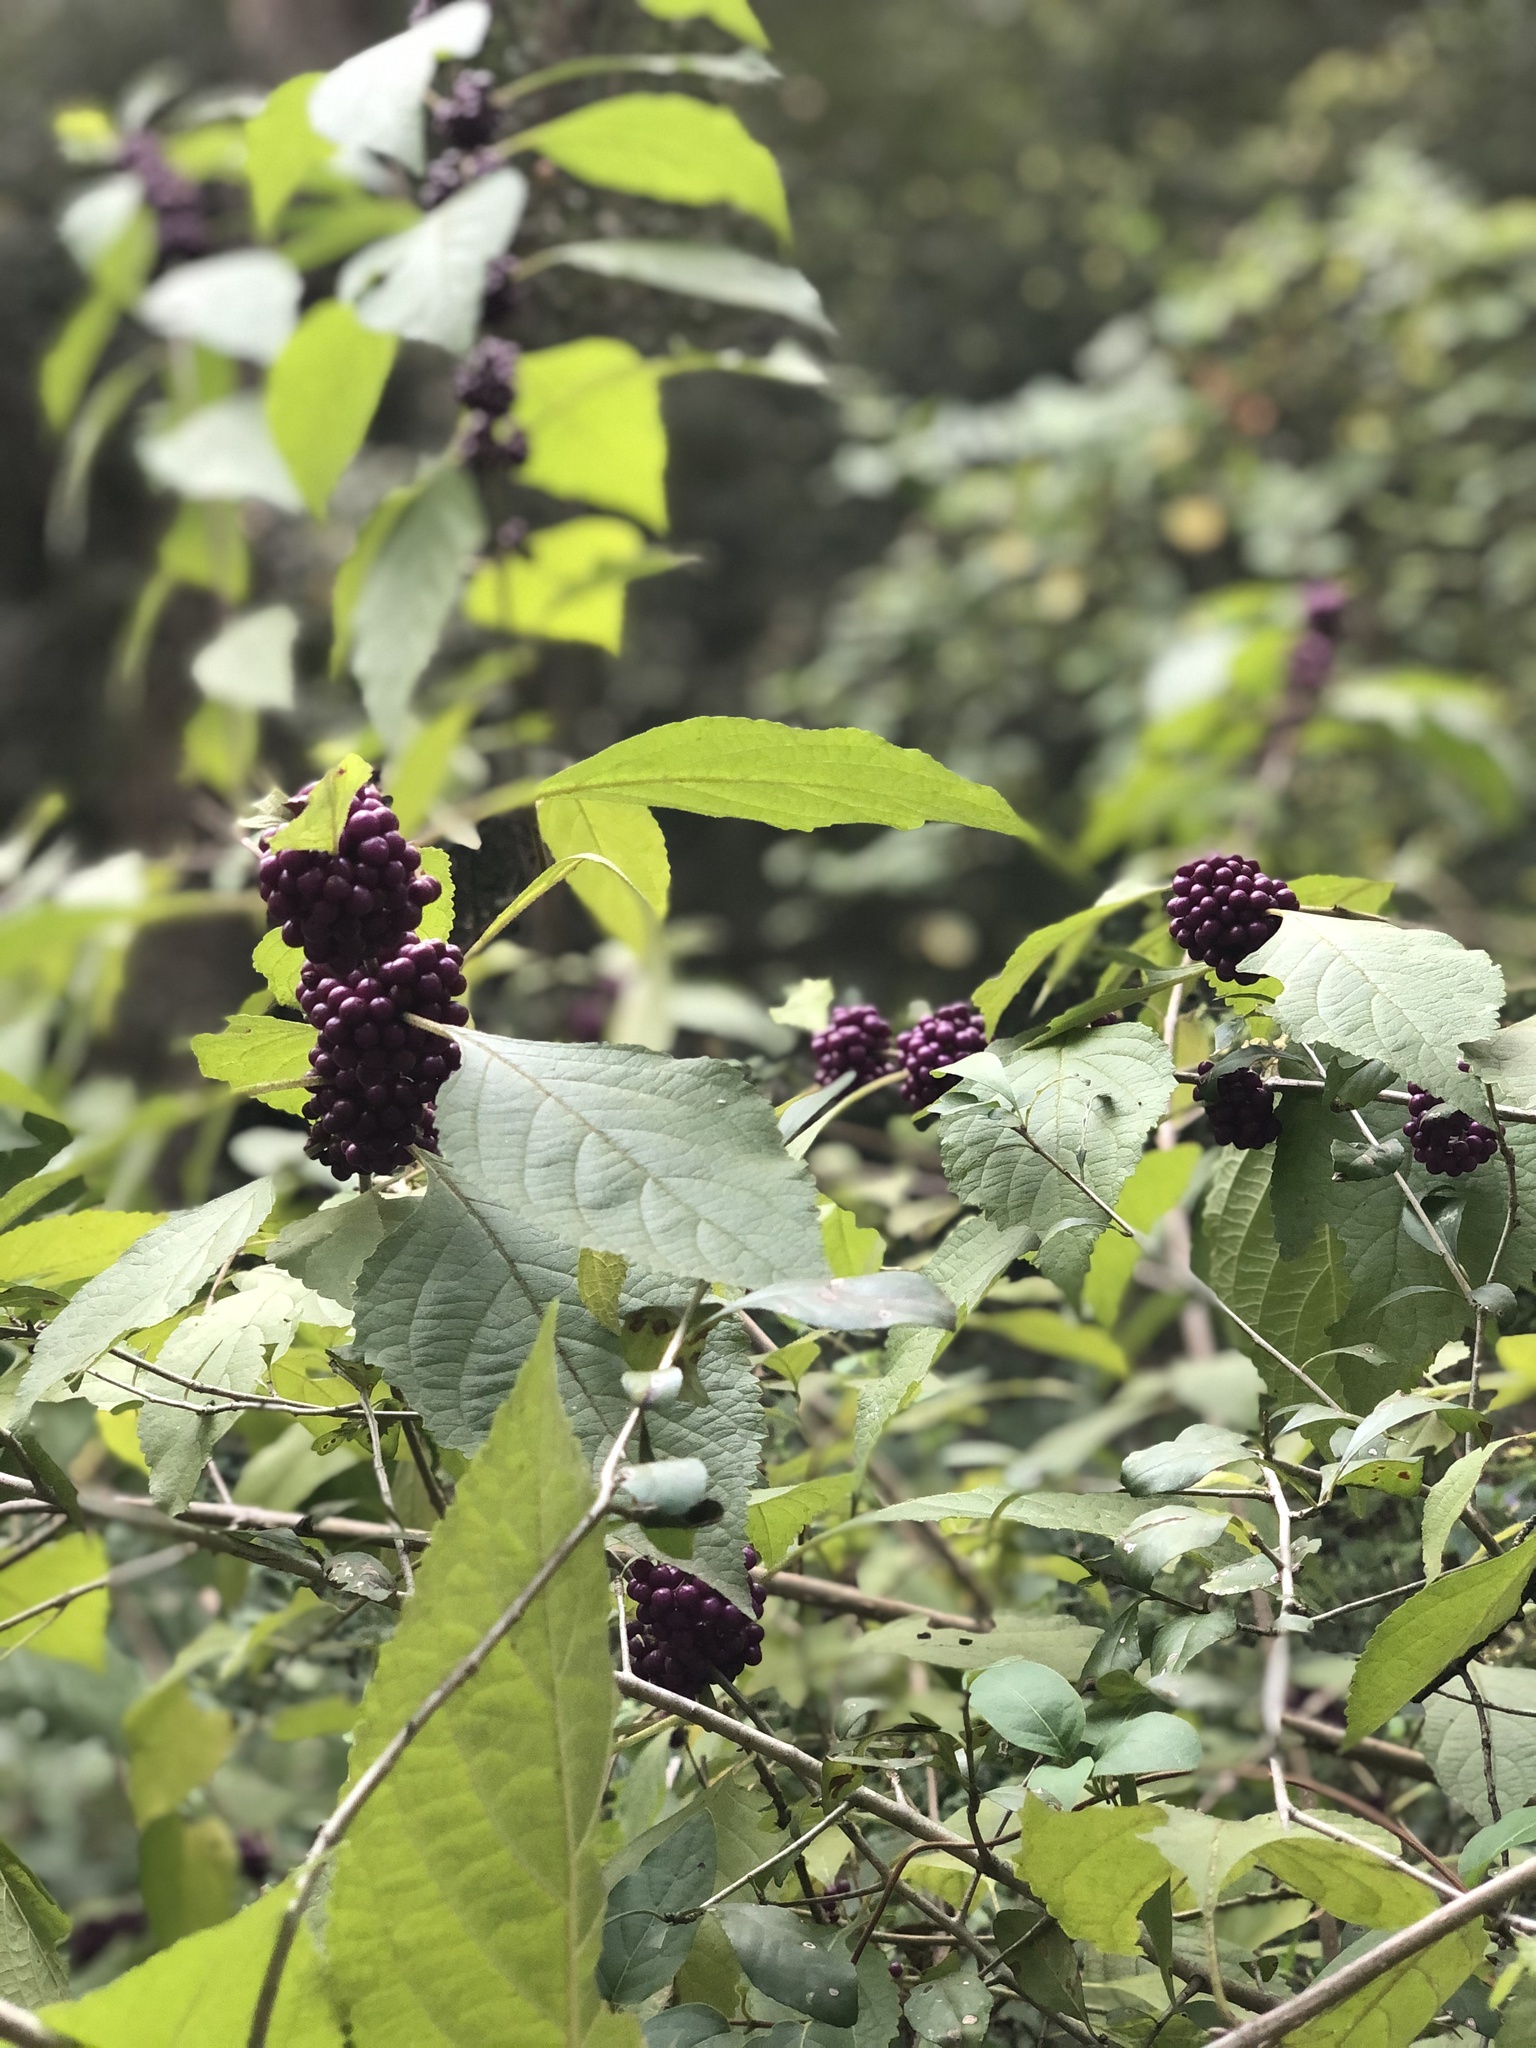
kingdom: Plantae
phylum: Tracheophyta
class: Magnoliopsida
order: Lamiales
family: Lamiaceae
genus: Callicarpa
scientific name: Callicarpa americana
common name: American beautyberry
